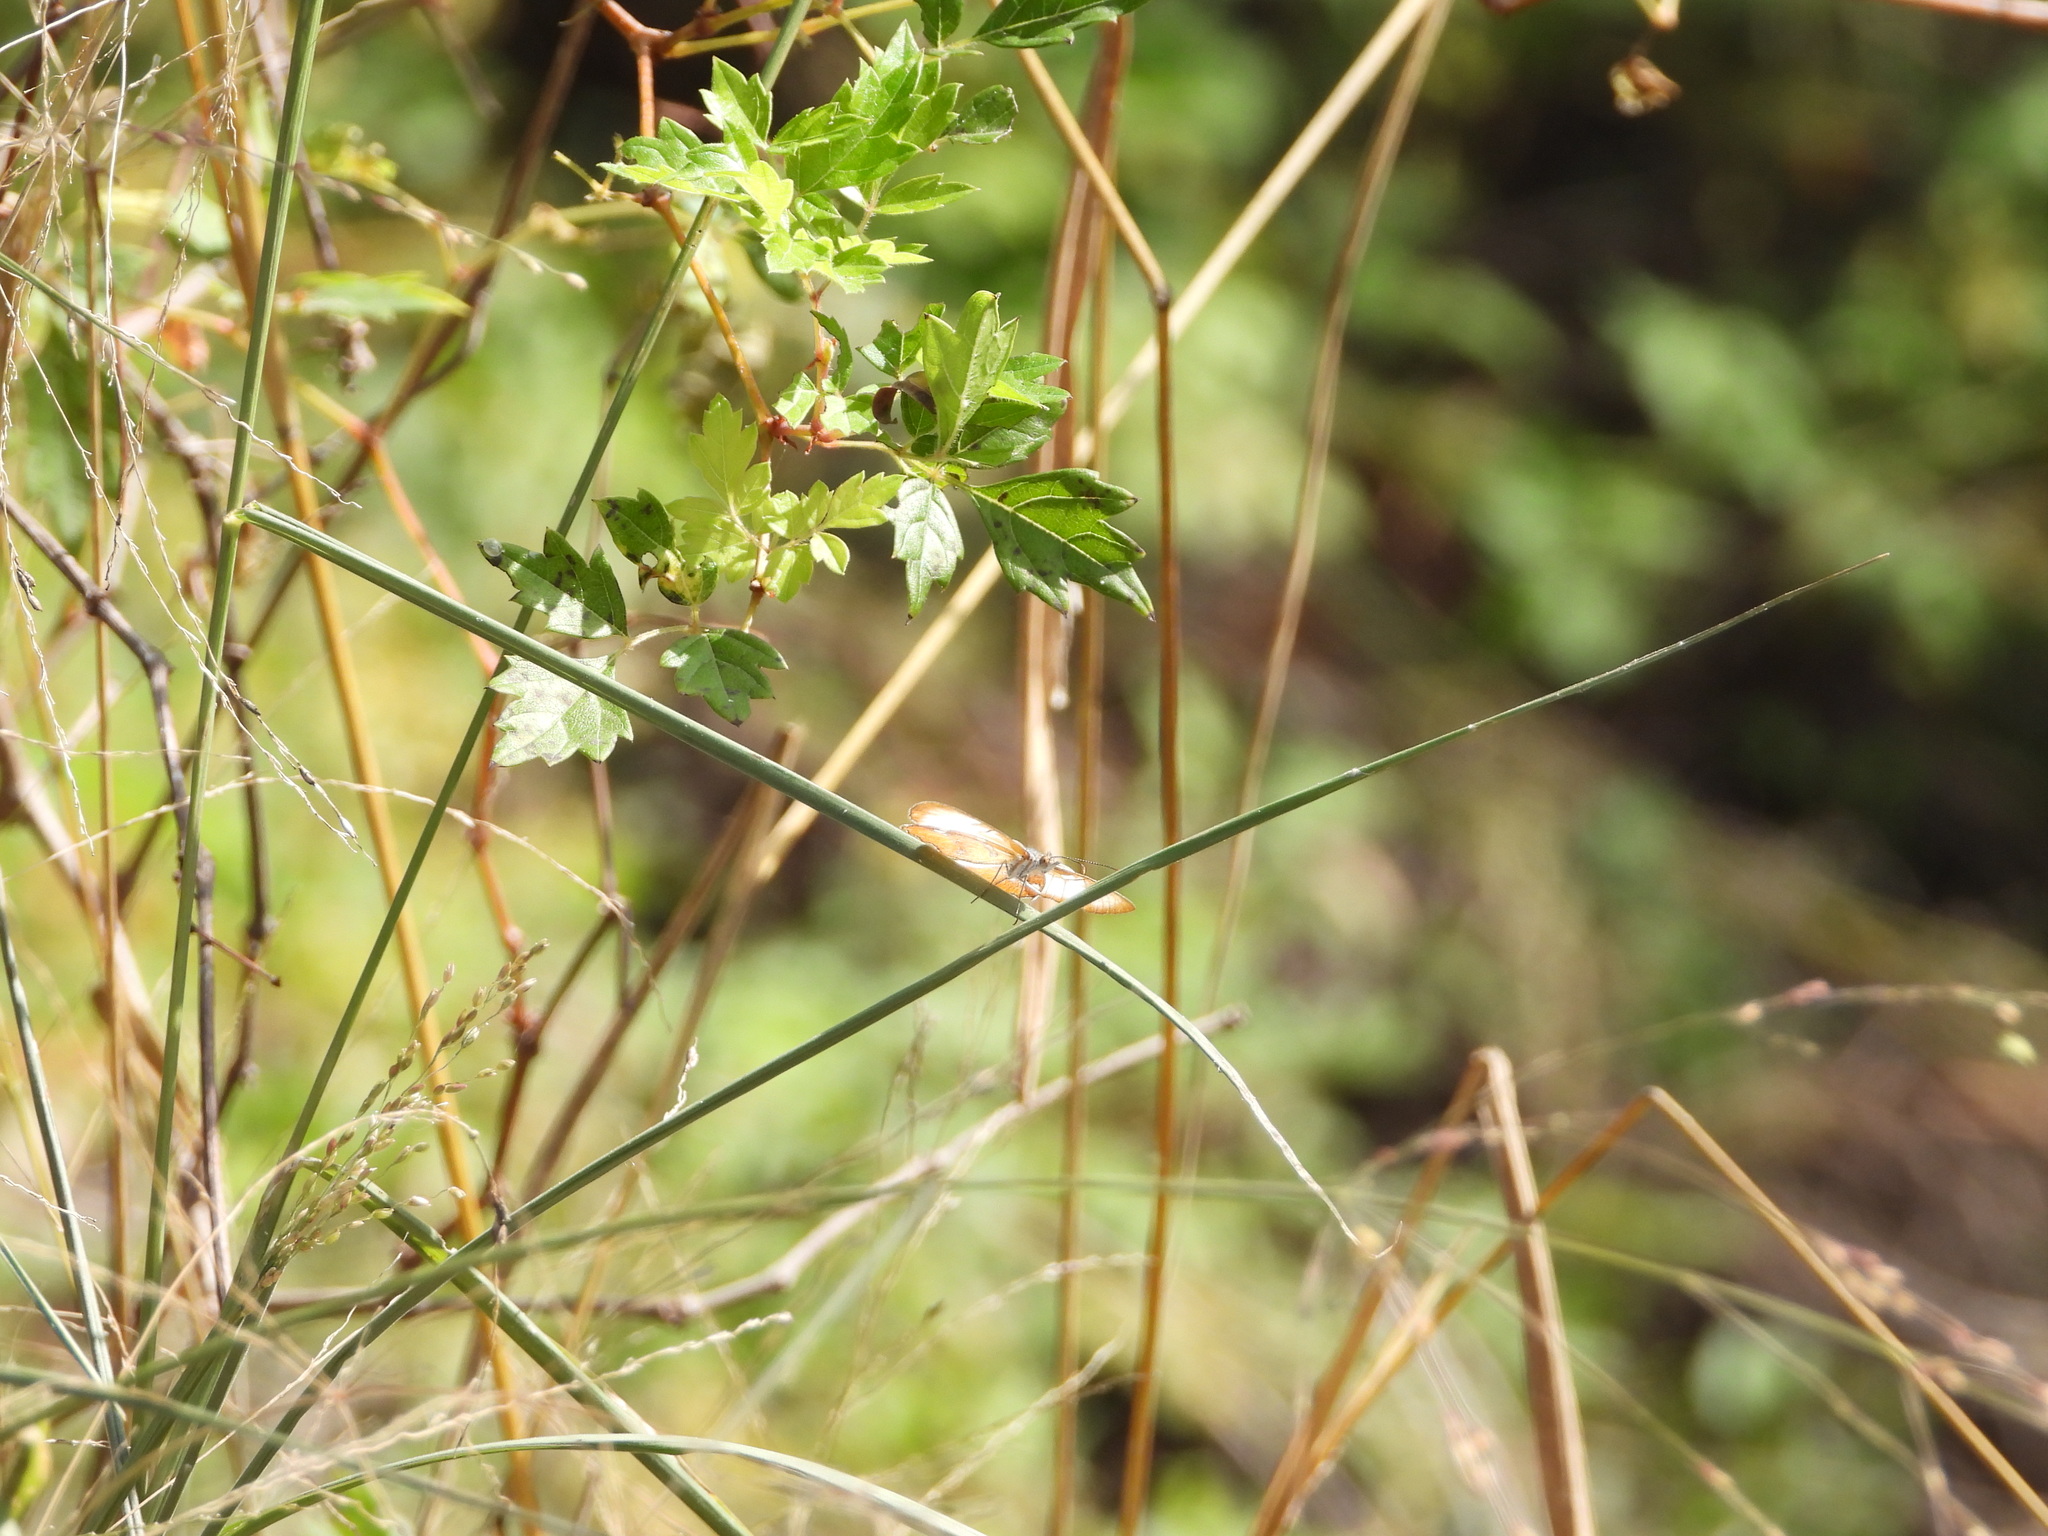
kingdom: Plantae
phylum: Tracheophyta
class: Magnoliopsida
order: Vitales
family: Vitaceae
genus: Nekemias
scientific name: Nekemias arborea
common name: Peppervine
